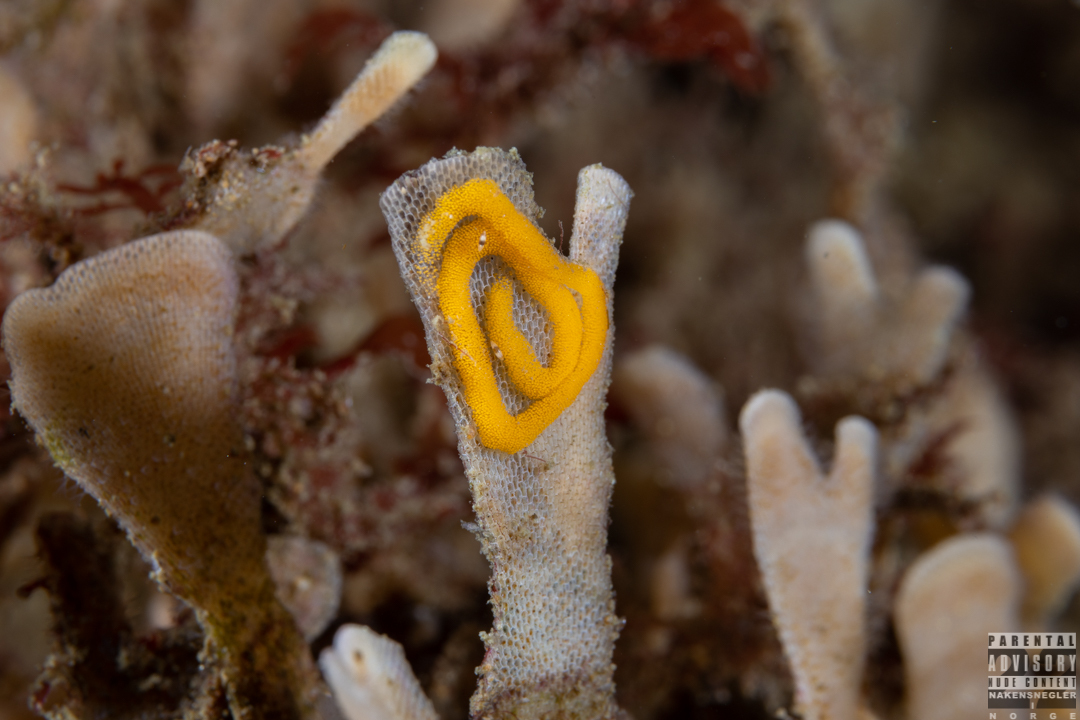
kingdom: Animalia
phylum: Mollusca
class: Gastropoda
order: Nudibranchia
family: Polyceridae
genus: Crimora
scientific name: Crimora papillata
